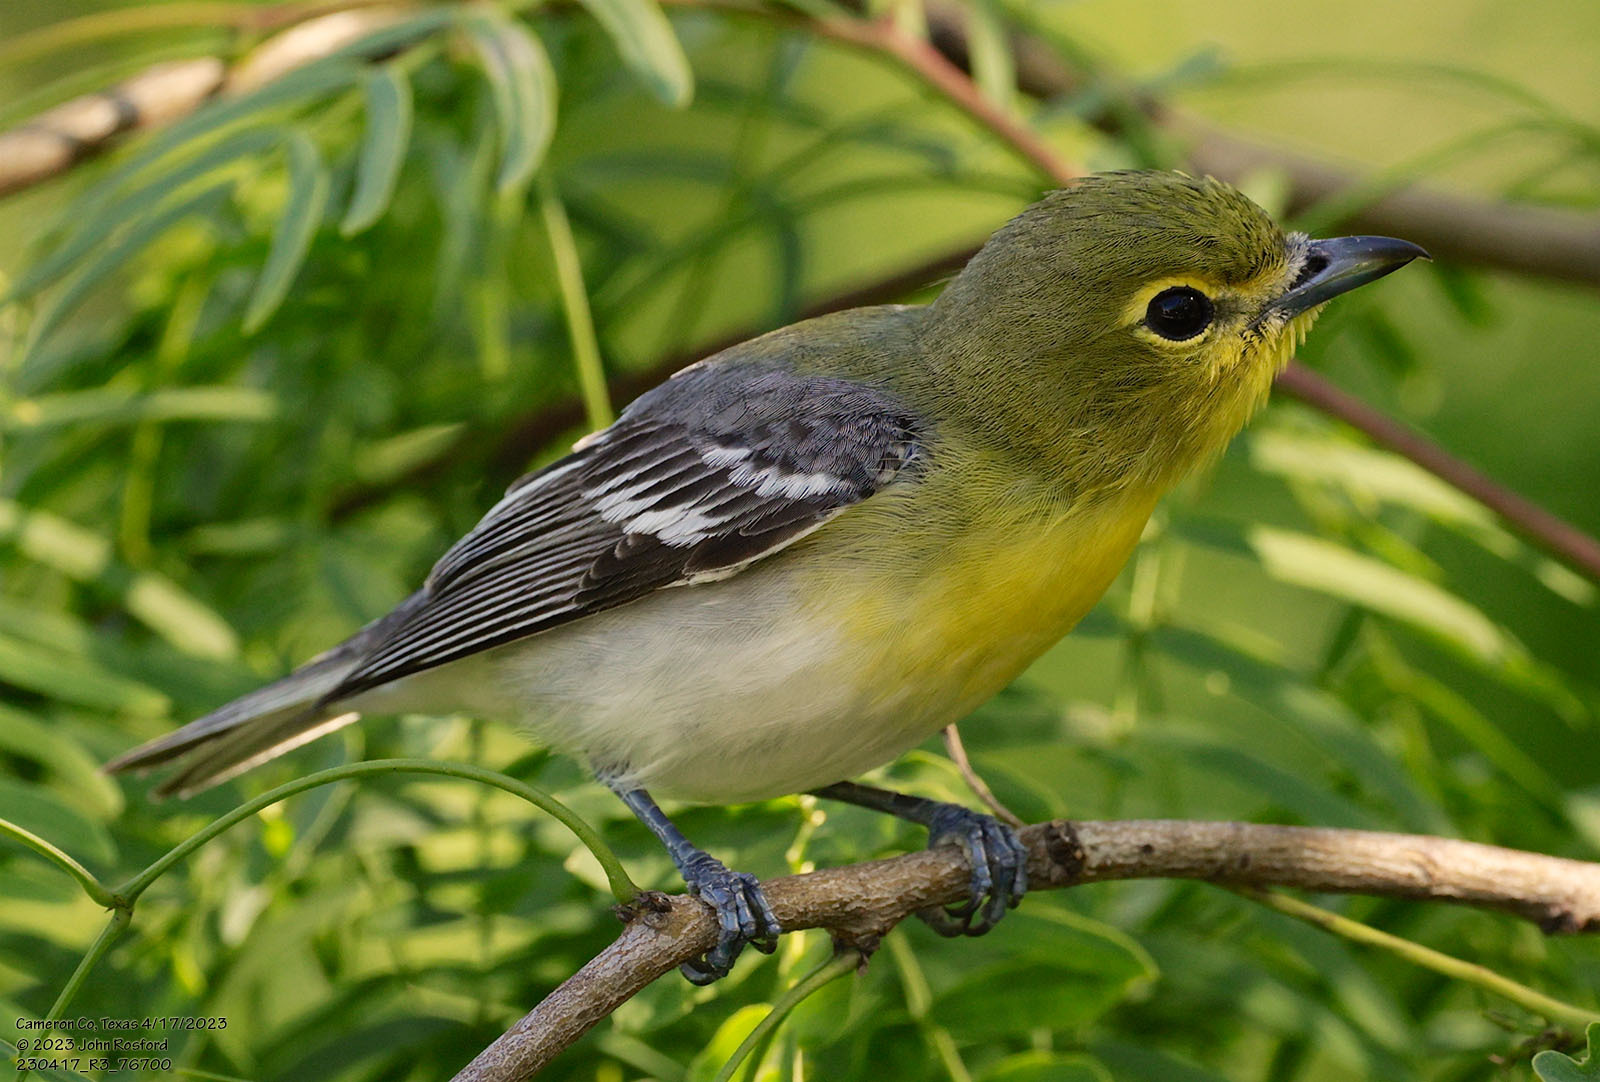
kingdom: Animalia
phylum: Chordata
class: Aves
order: Passeriformes
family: Vireonidae
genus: Vireo
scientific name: Vireo flavifrons
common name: Yellow-throated vireo
